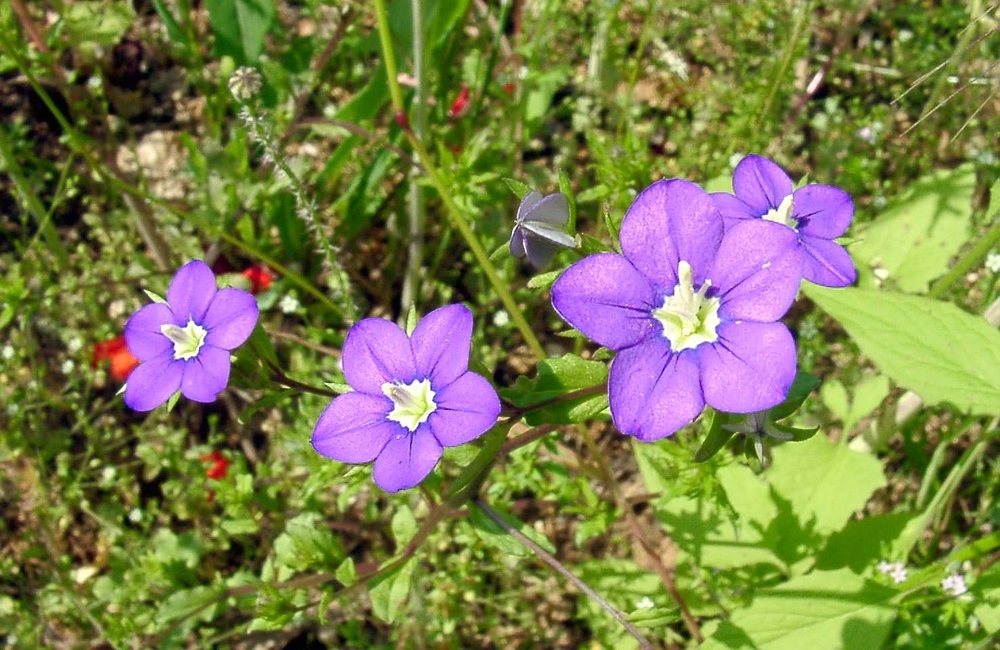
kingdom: Plantae
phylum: Tracheophyta
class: Magnoliopsida
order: Asterales
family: Campanulaceae
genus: Legousia
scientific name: Legousia speculum-veneris
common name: Large venus's-looking-glass
